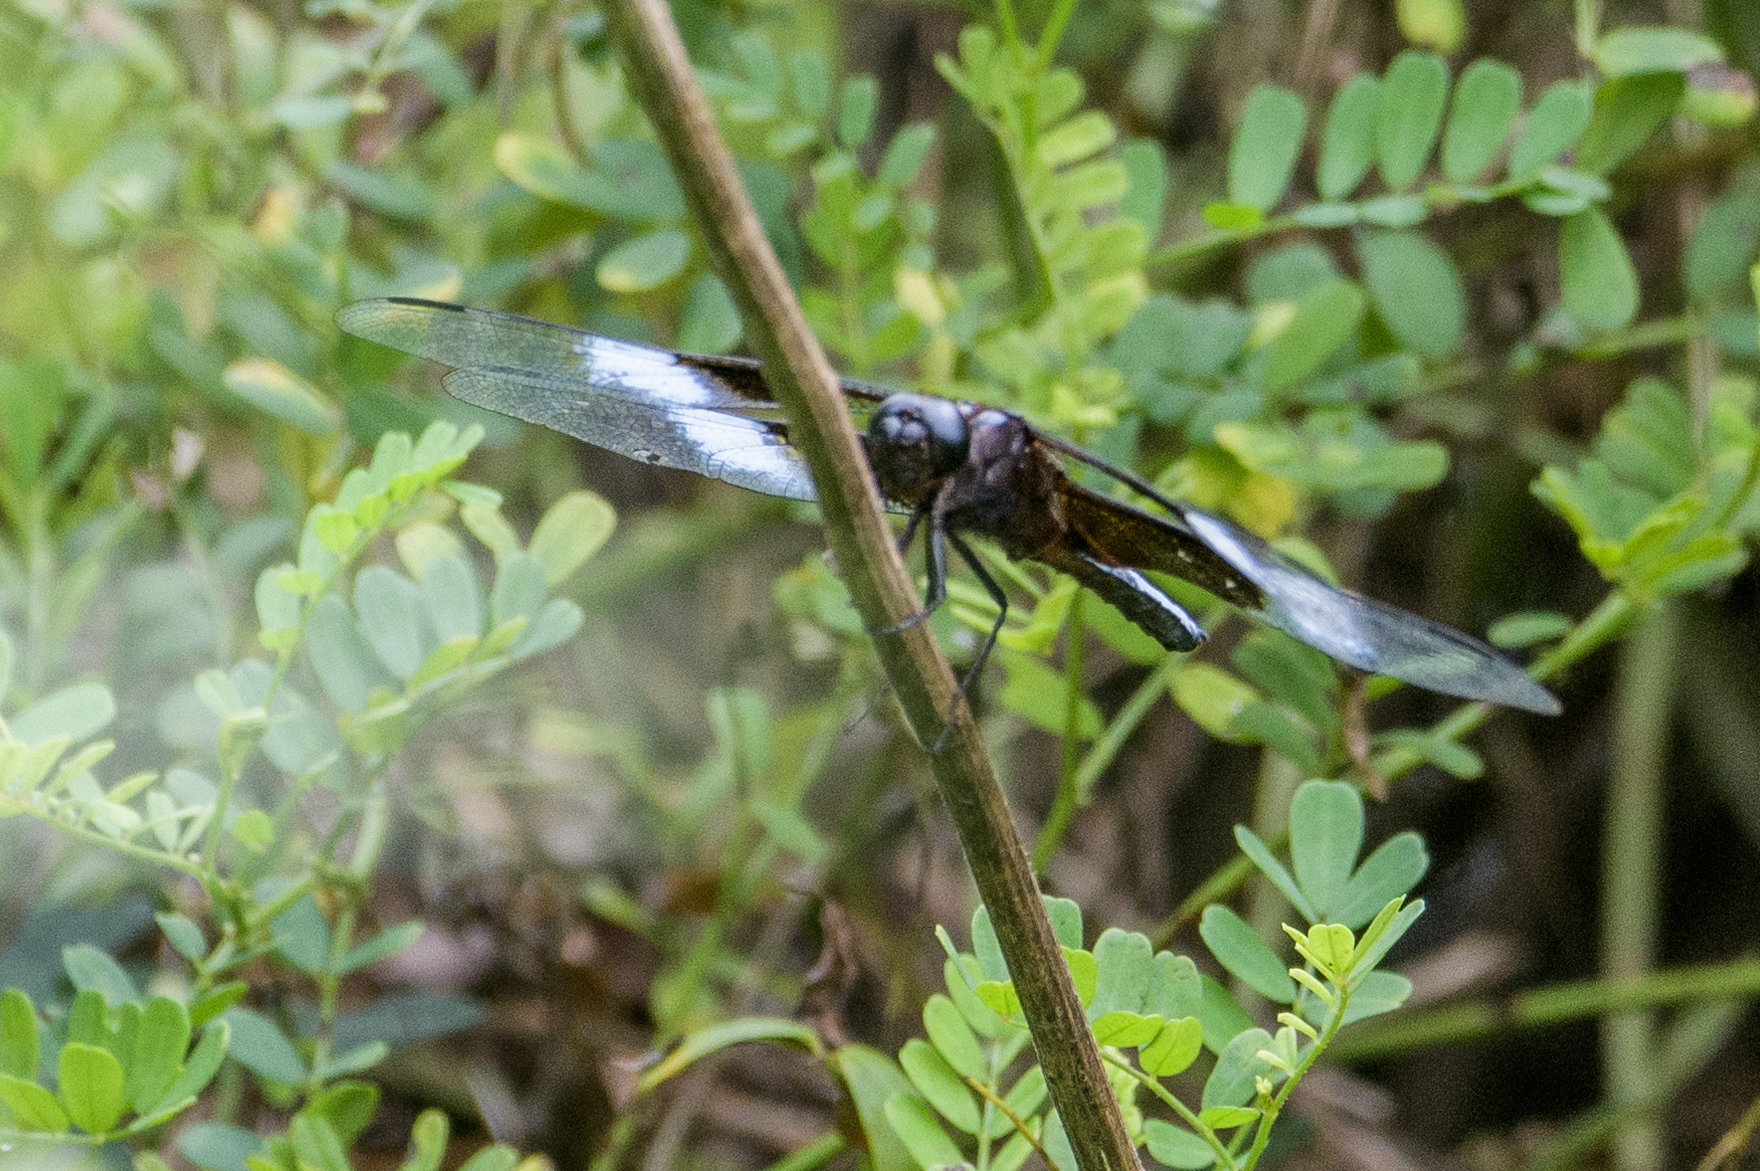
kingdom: Animalia
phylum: Arthropoda
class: Insecta
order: Odonata
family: Libellulidae
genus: Libellula
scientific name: Libellula luctuosa
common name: Widow skimmer
